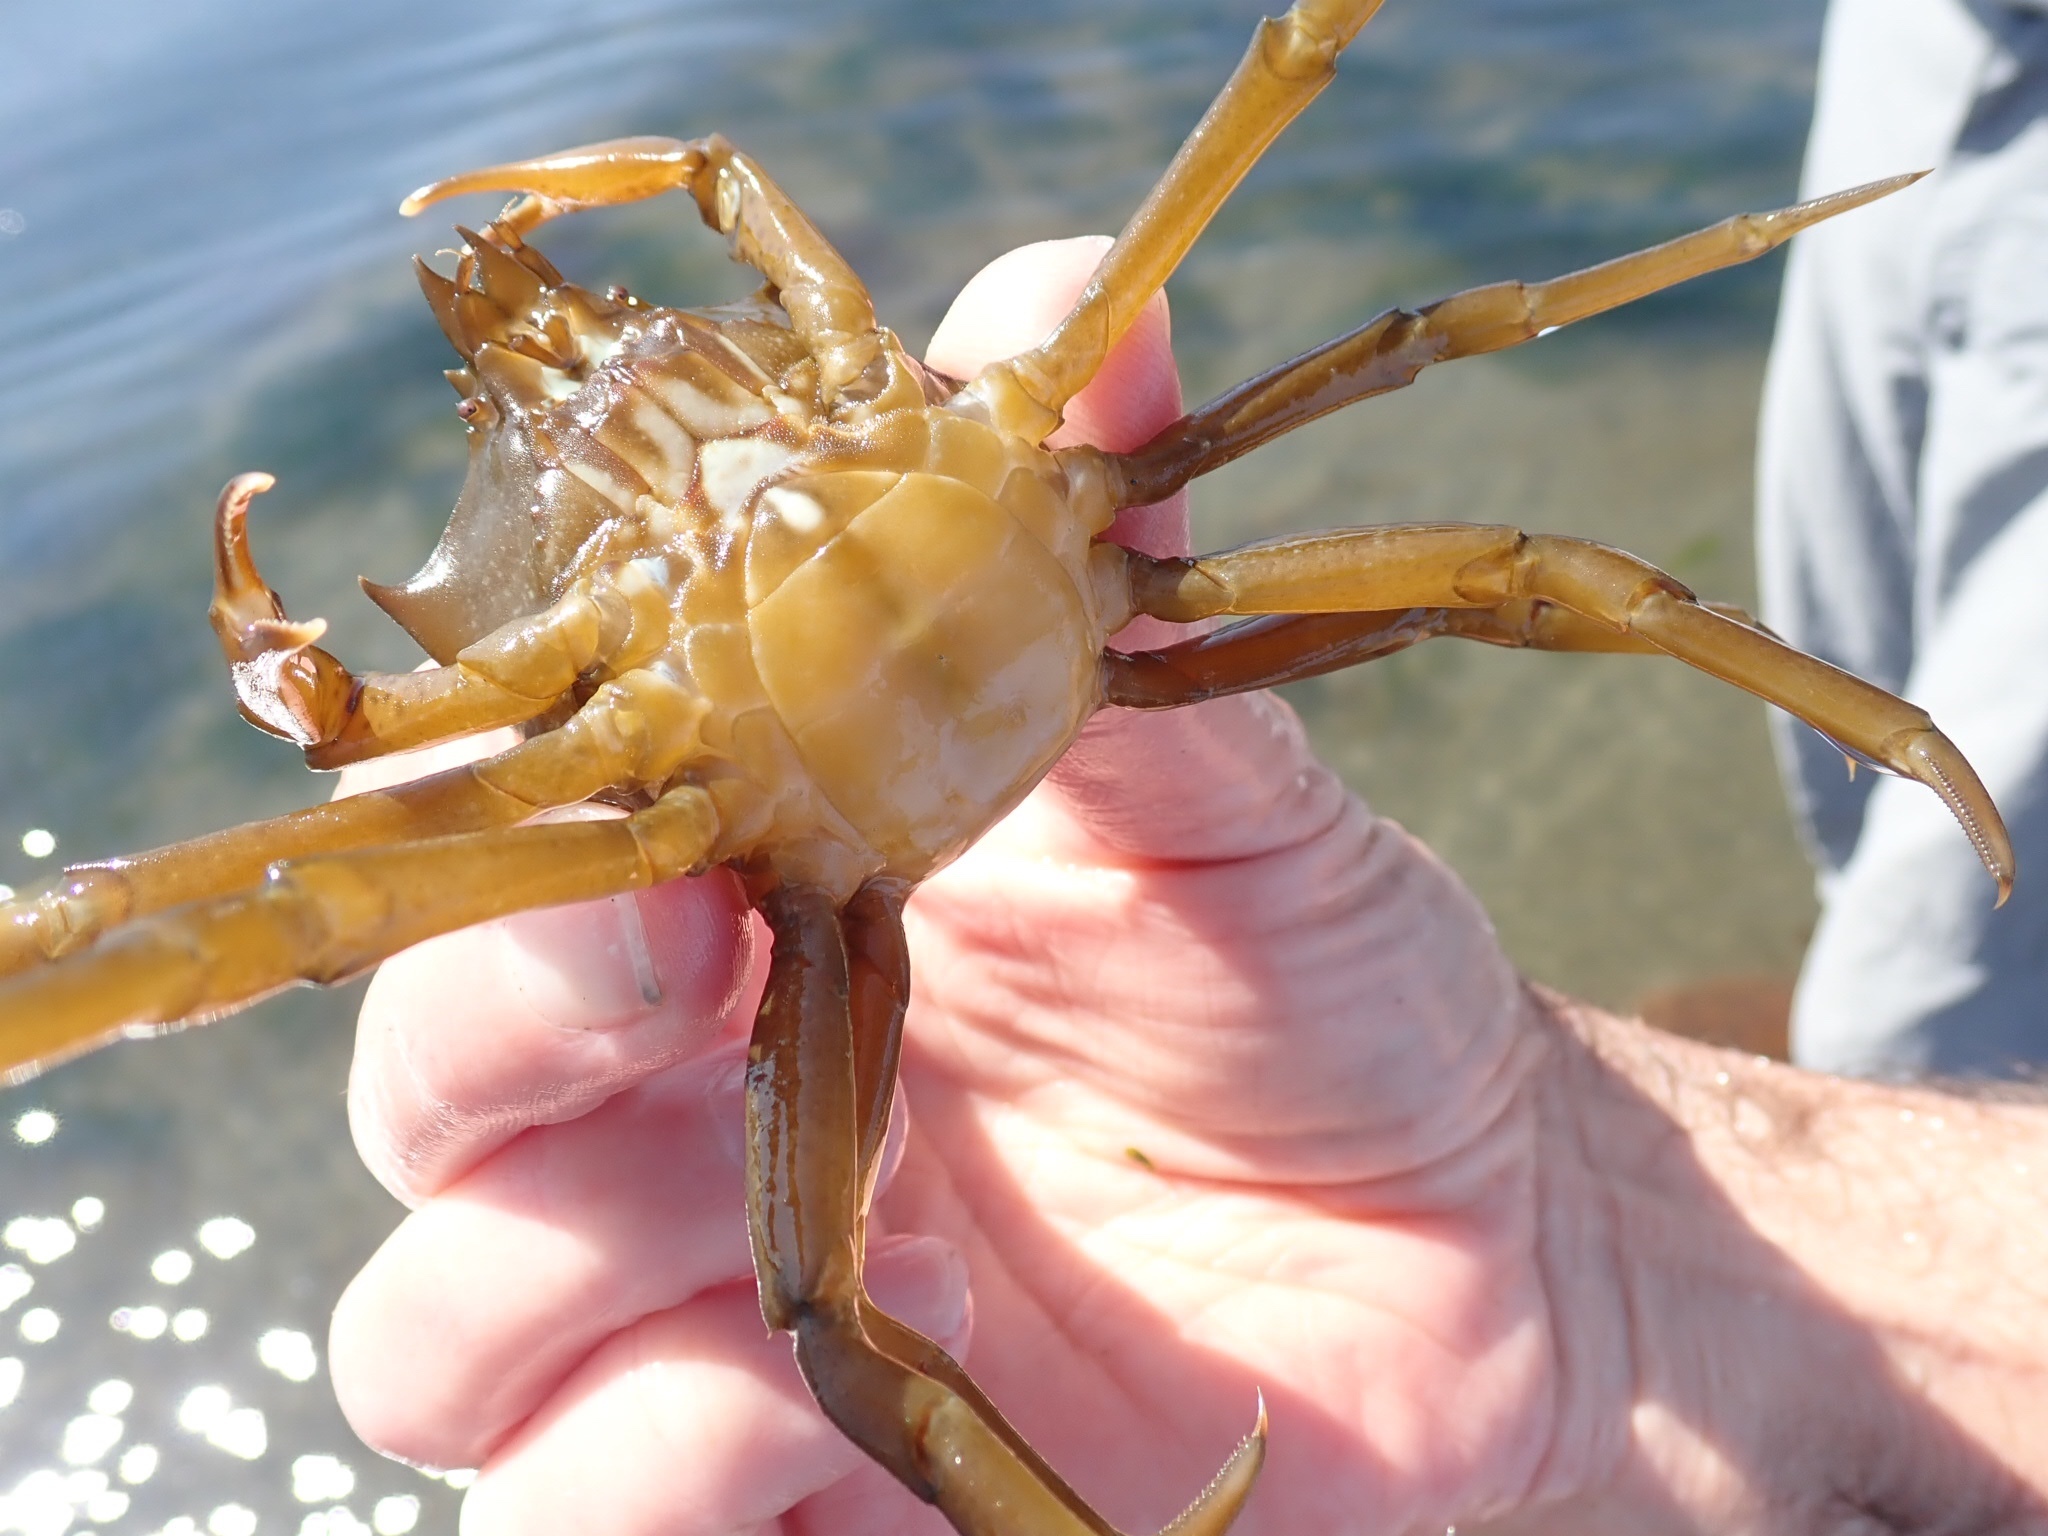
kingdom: Animalia
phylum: Arthropoda
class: Malacostraca
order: Decapoda
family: Epialtidae
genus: Pugettia
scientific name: Pugettia producta
